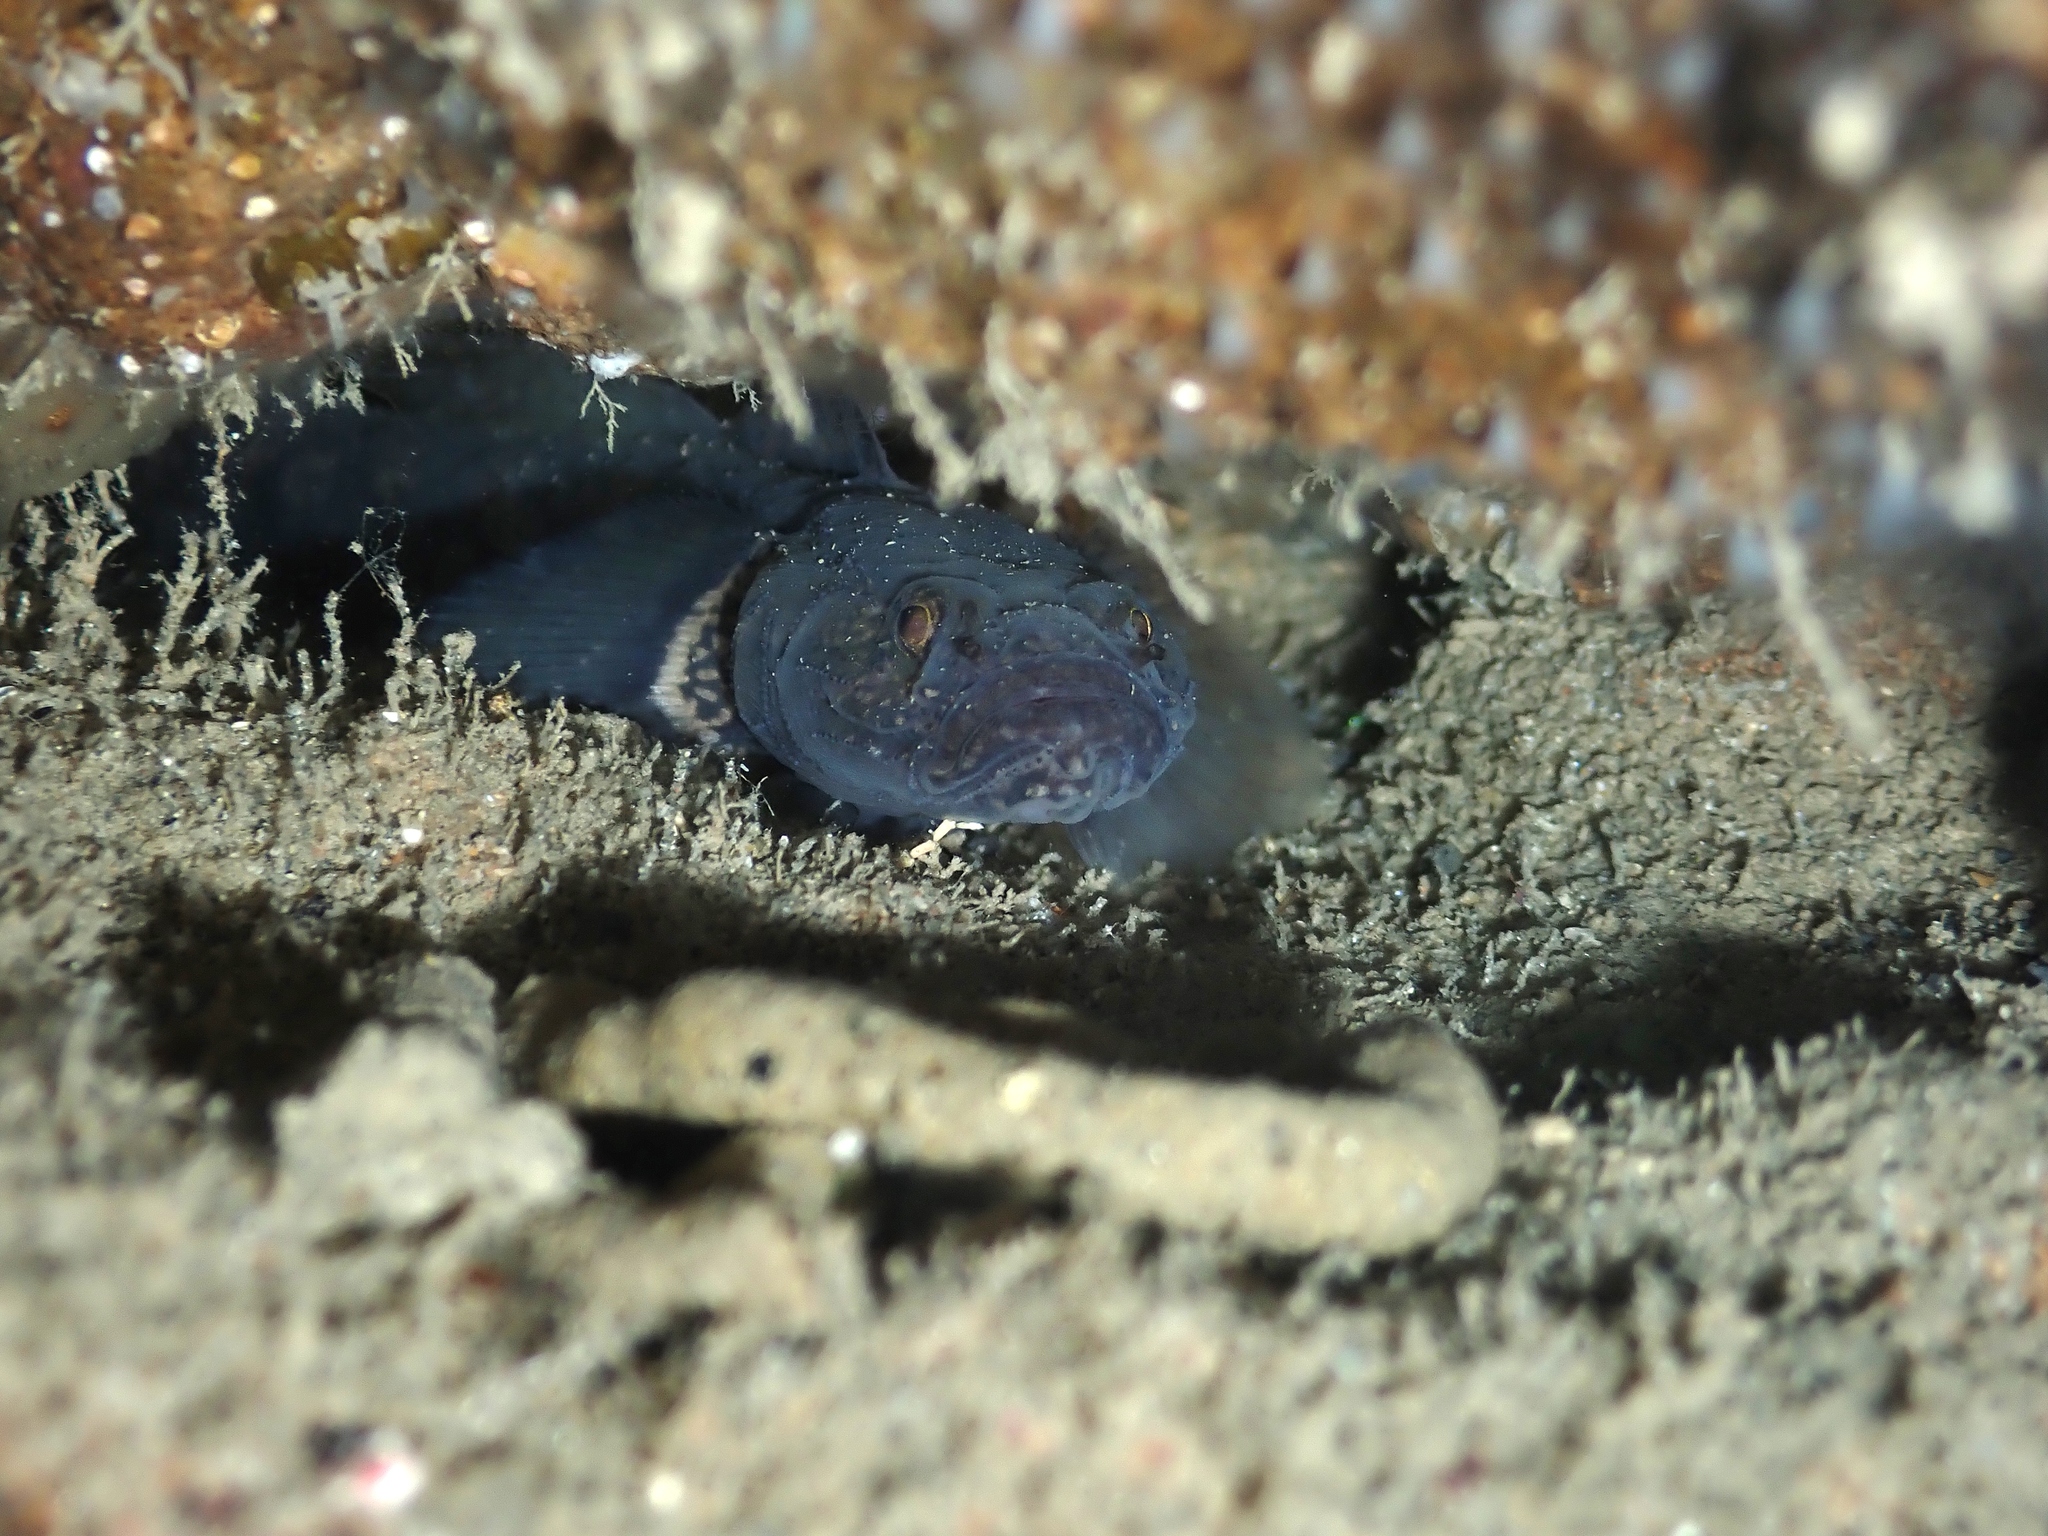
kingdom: Animalia
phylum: Chordata
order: Perciformes
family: Gobiidae
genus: Gobiopsis
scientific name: Gobiopsis atrata
